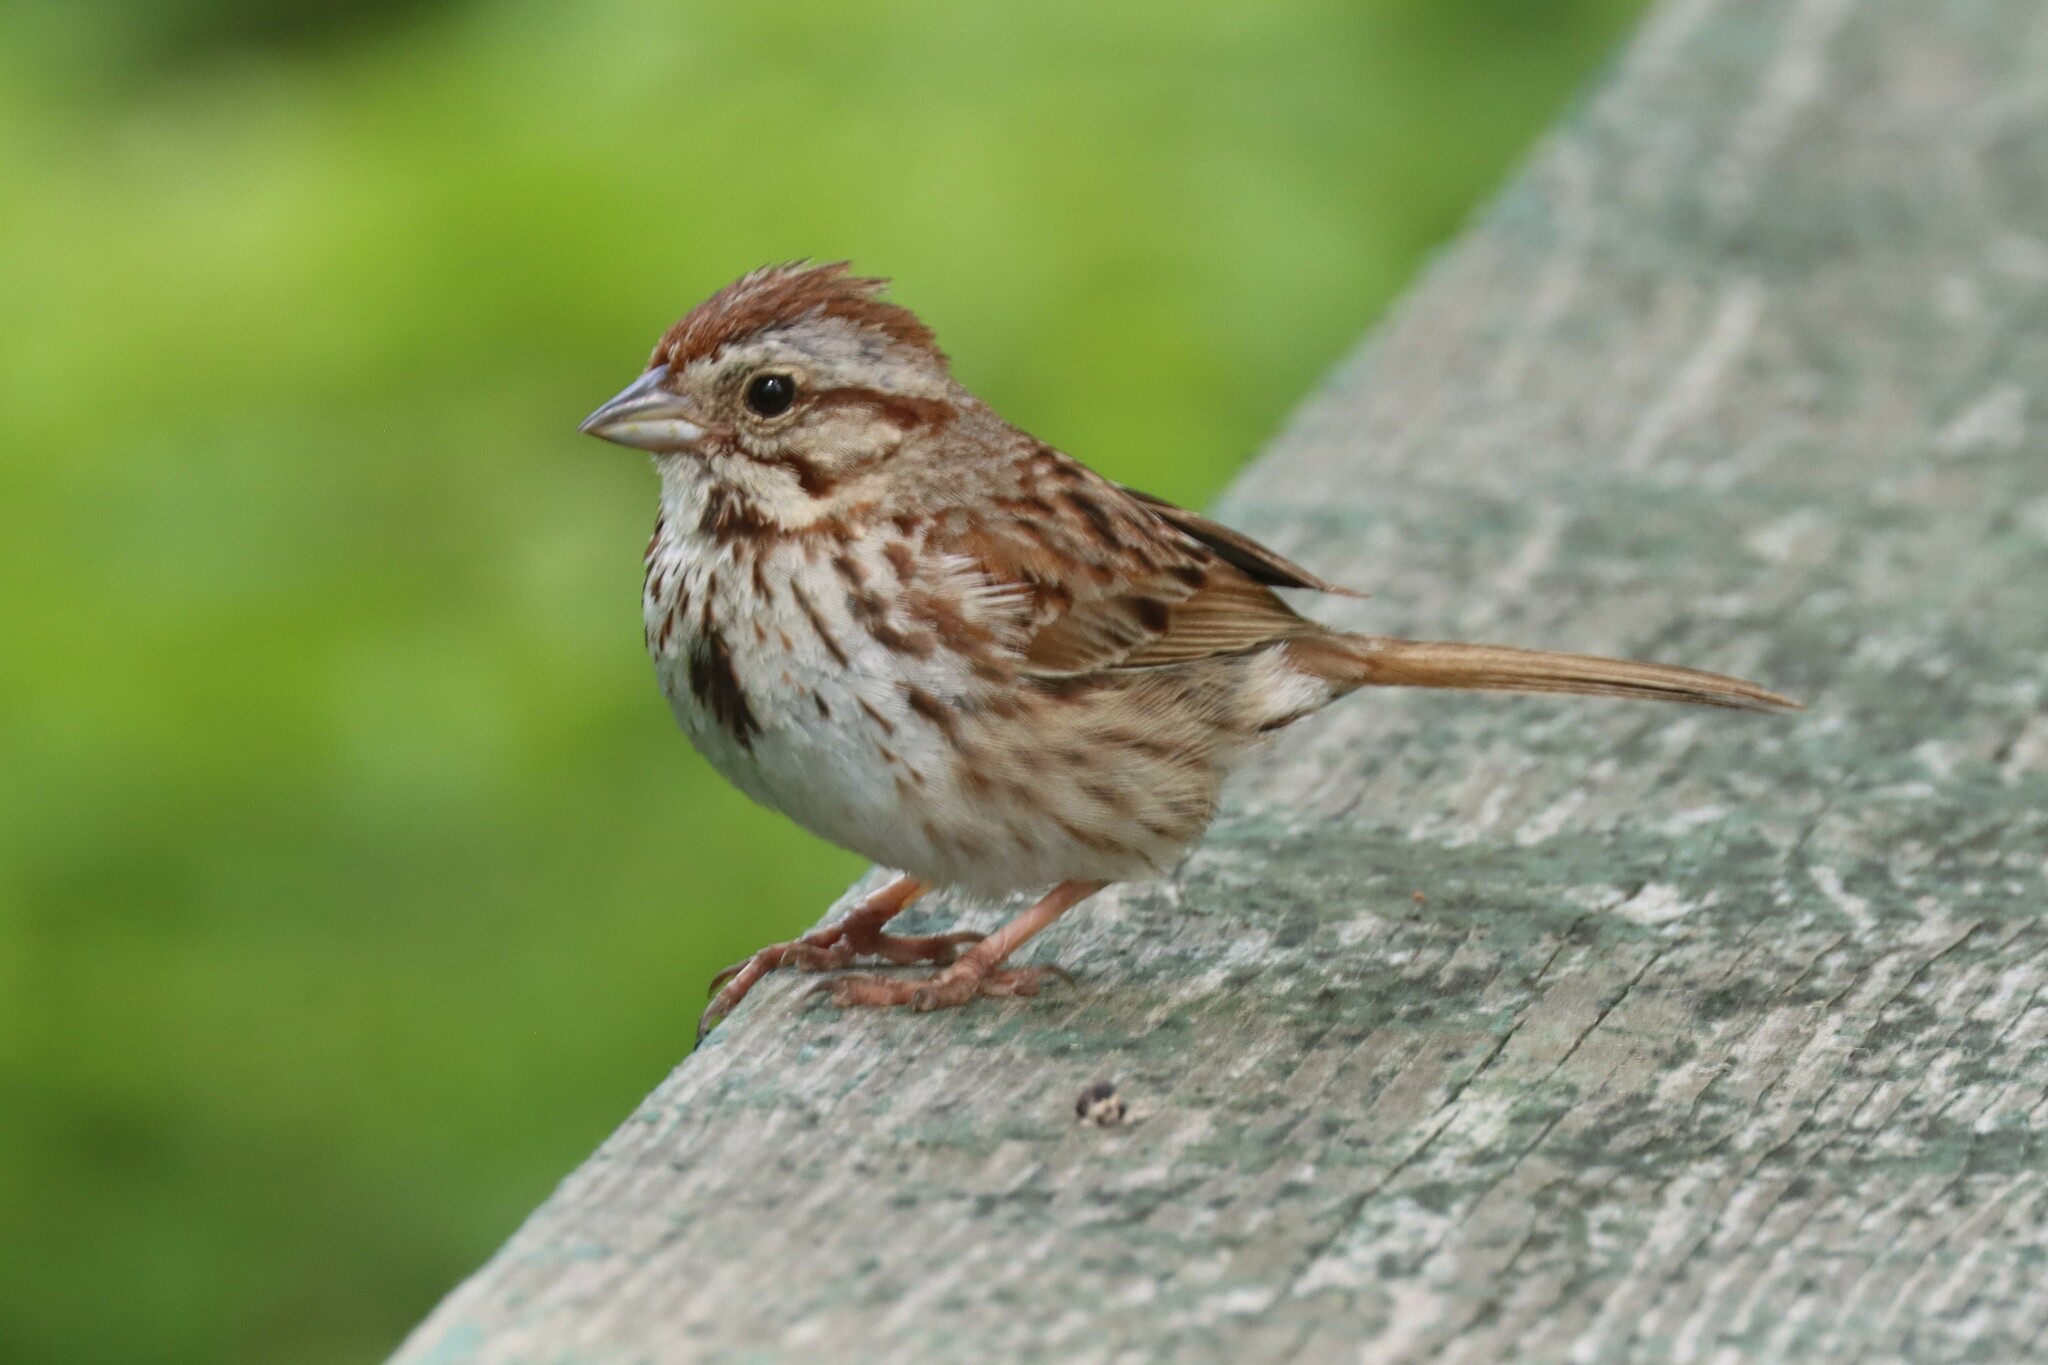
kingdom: Animalia
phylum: Chordata
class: Aves
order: Passeriformes
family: Passerellidae
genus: Melospiza
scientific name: Melospiza melodia
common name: Song sparrow
